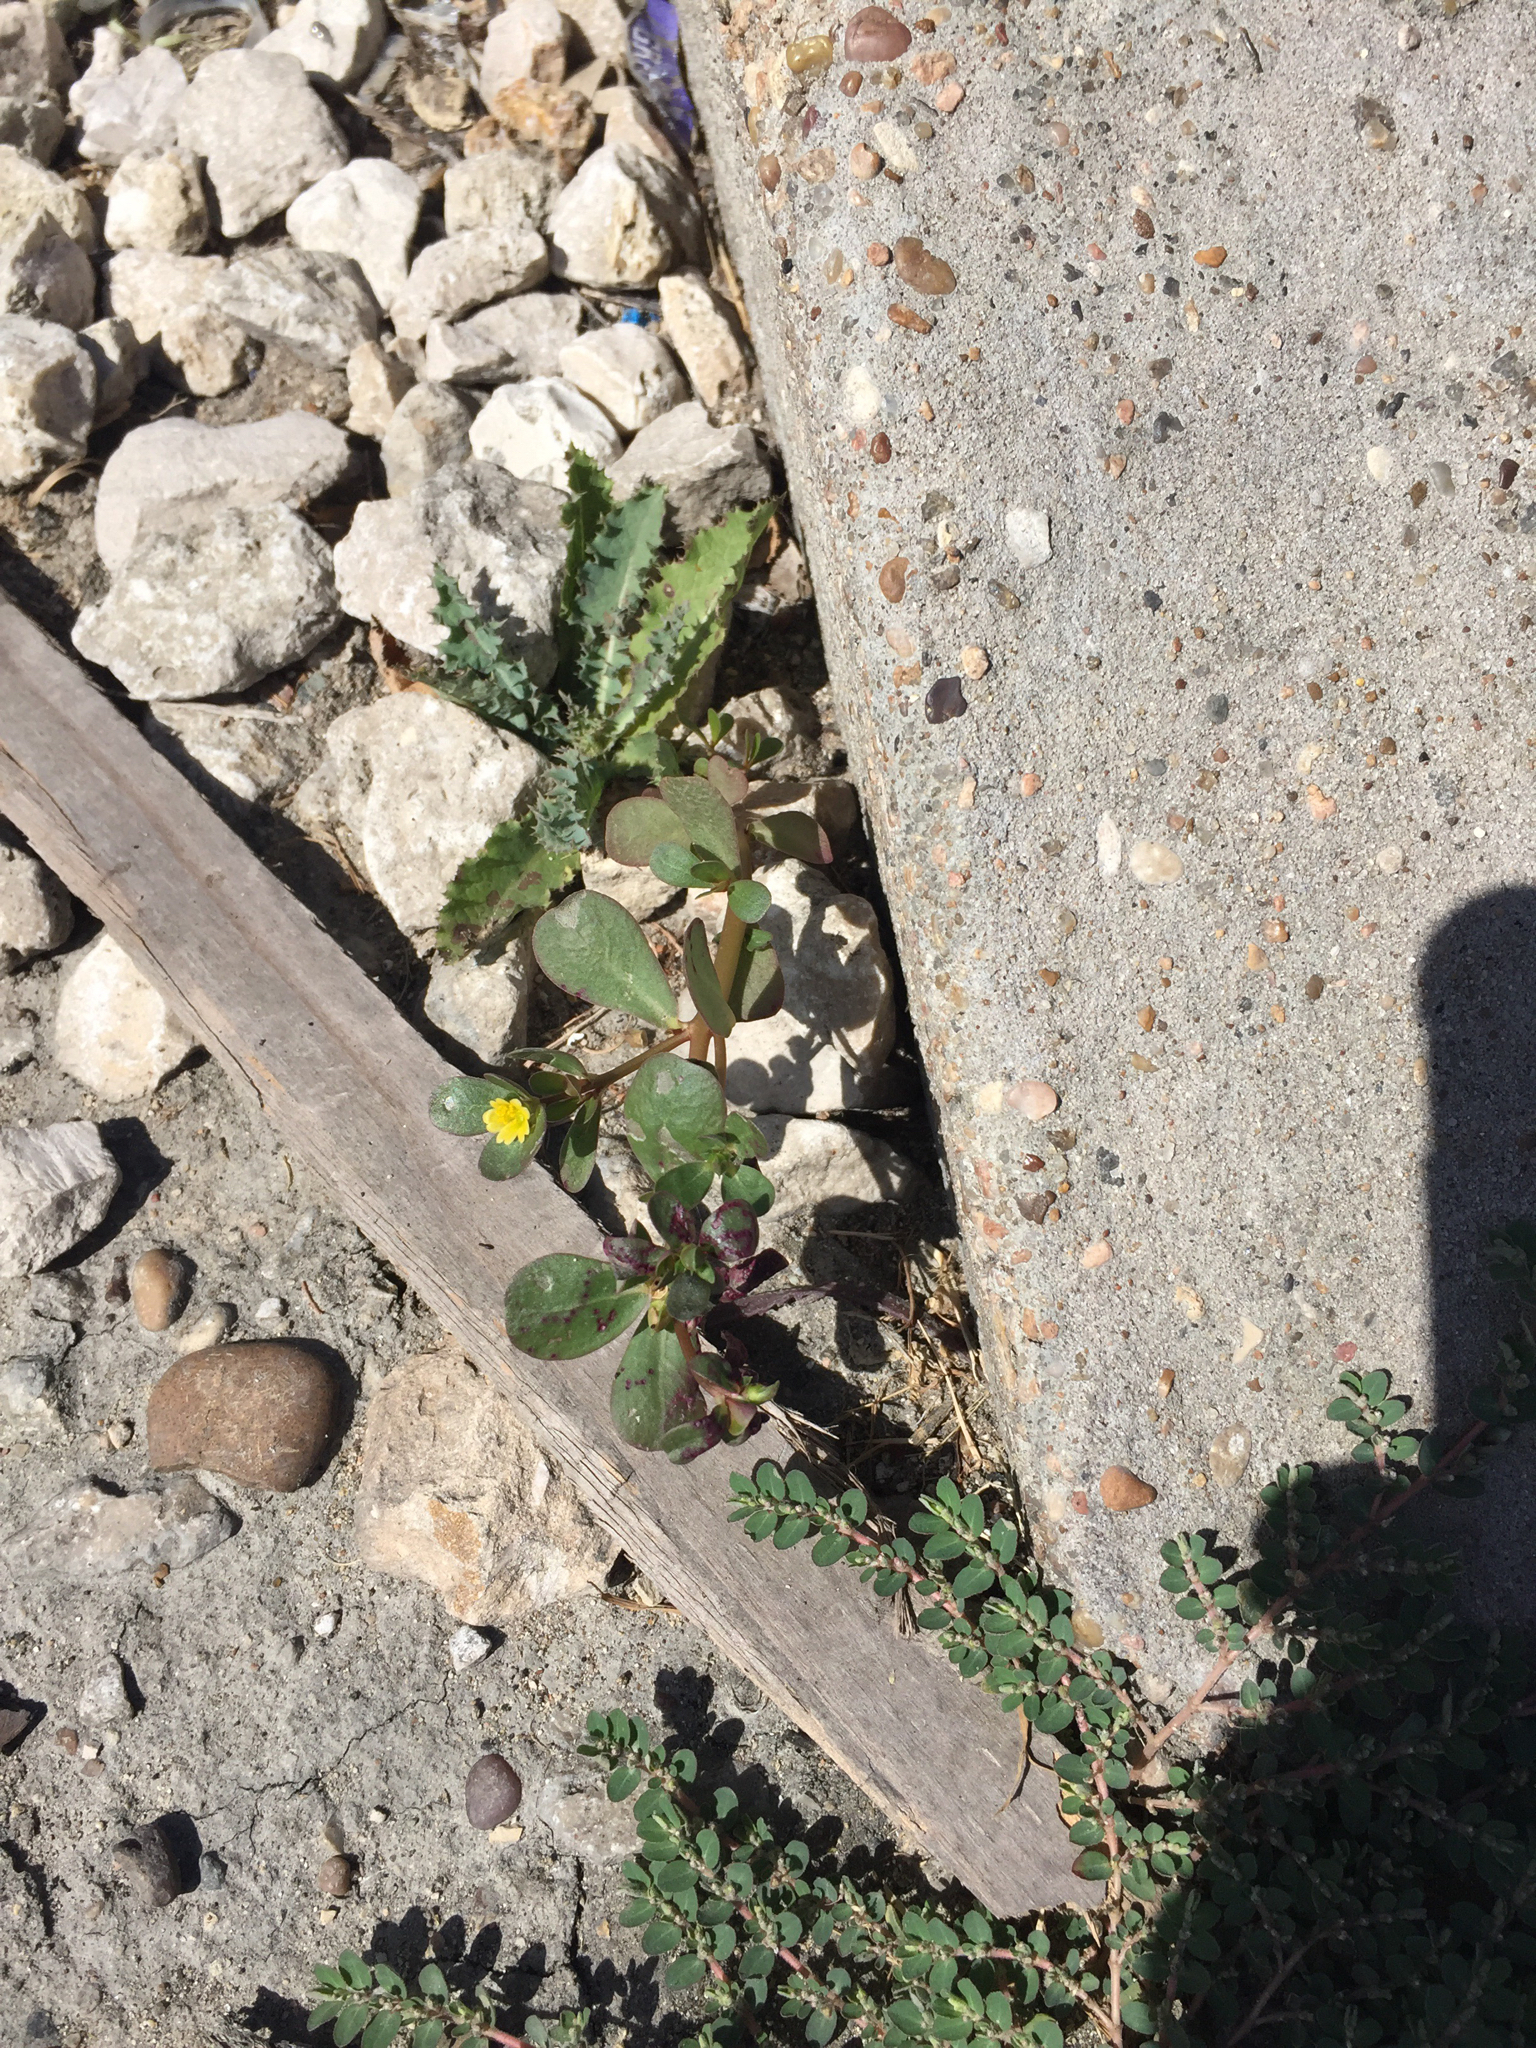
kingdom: Plantae
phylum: Tracheophyta
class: Magnoliopsida
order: Caryophyllales
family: Portulacaceae
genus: Portulaca
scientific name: Portulaca oleracea
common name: Common purslane
